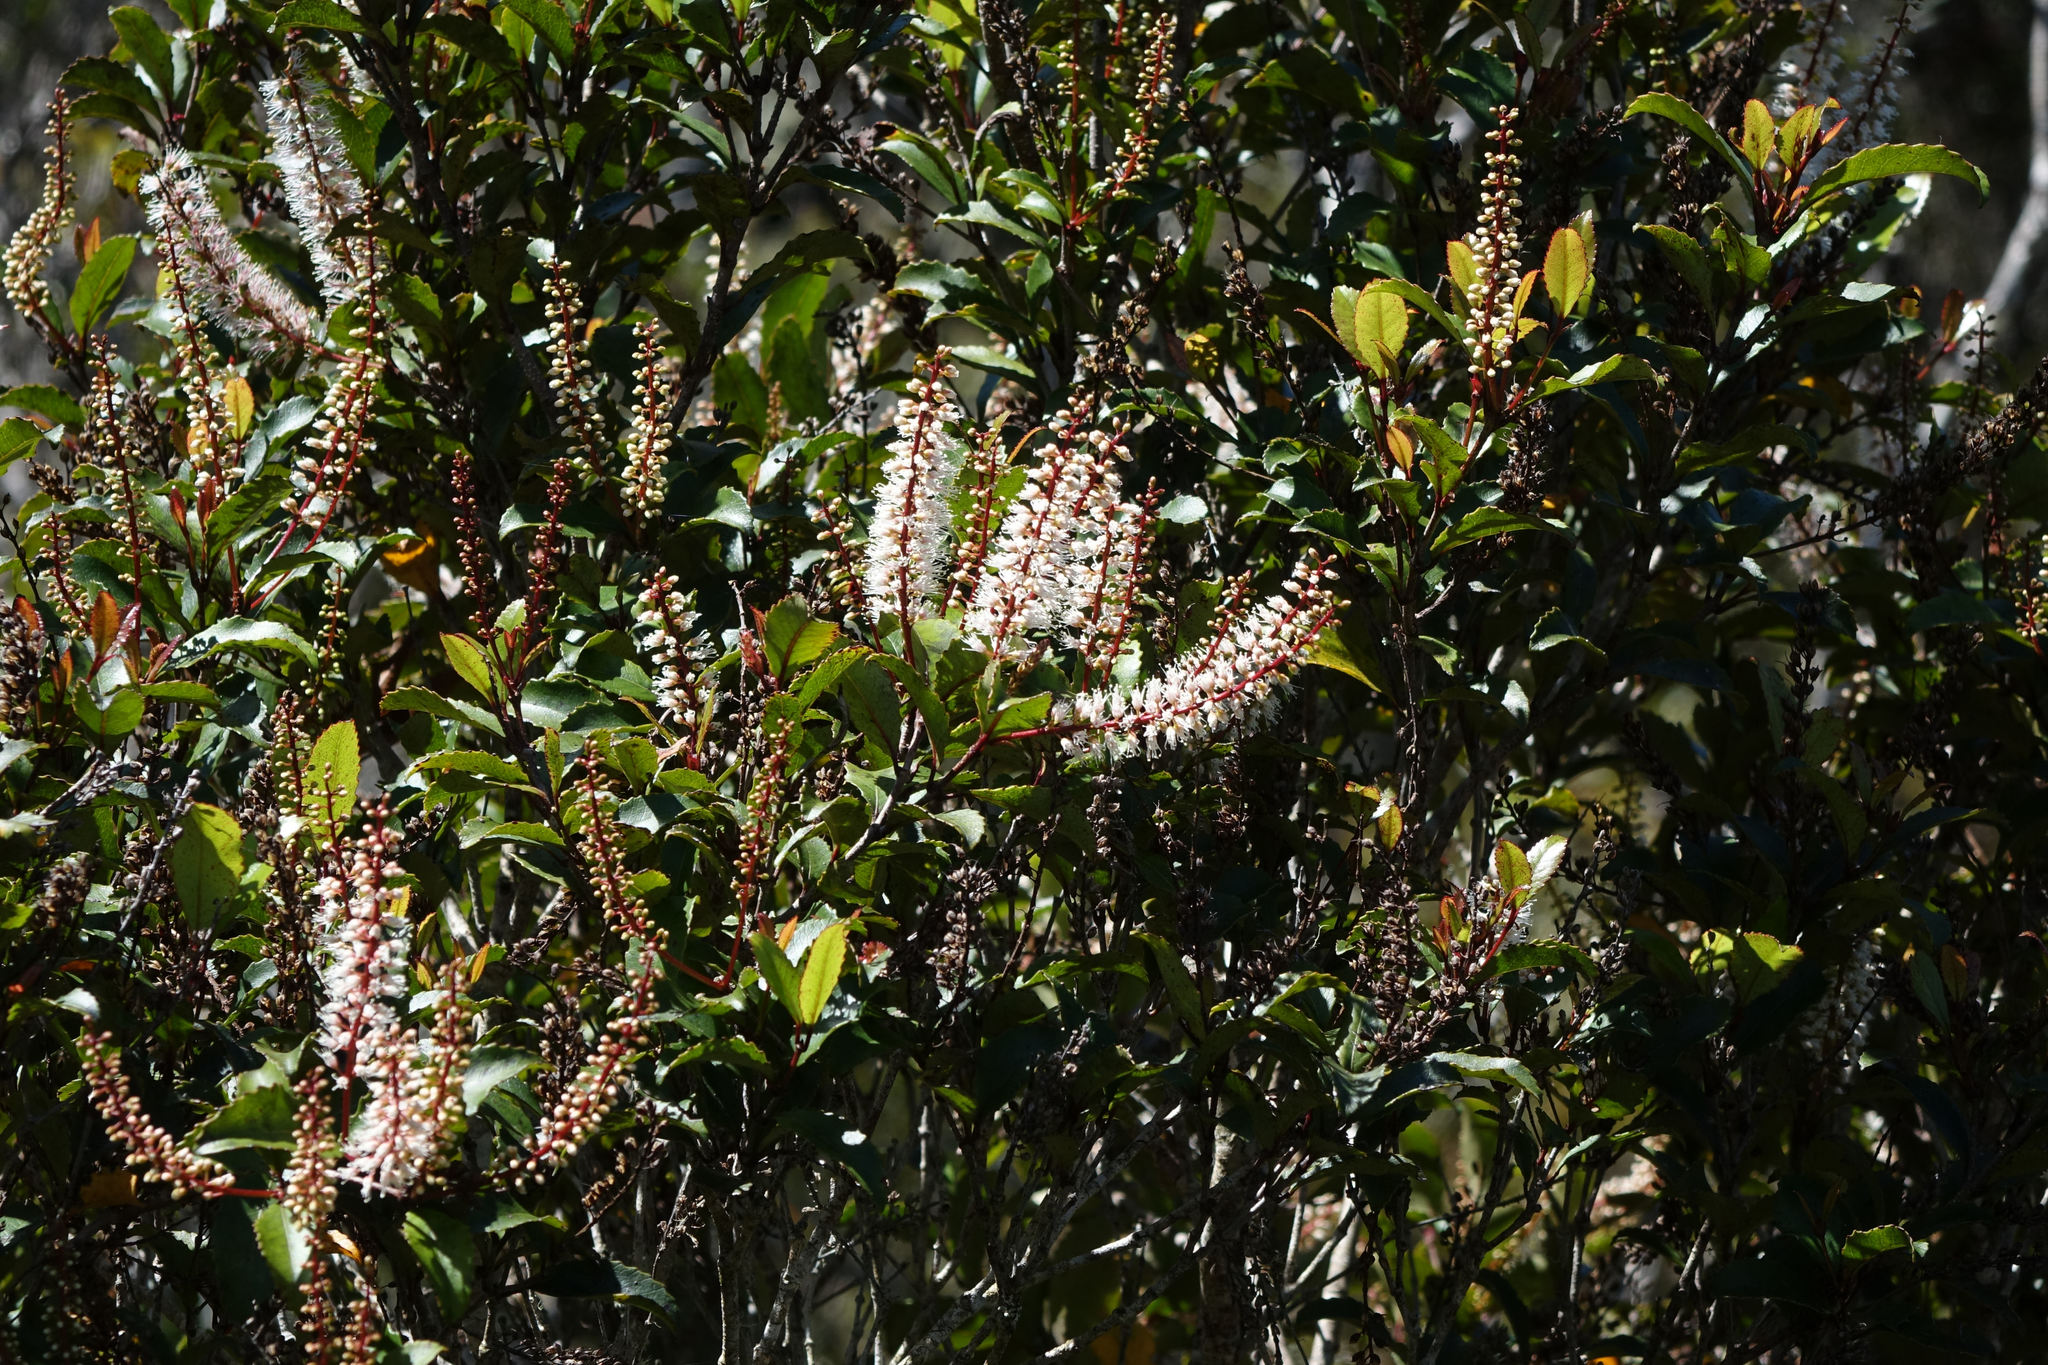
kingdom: Plantae
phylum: Tracheophyta
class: Magnoliopsida
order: Oxalidales
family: Cunoniaceae
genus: Pterophylla
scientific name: Pterophylla racemosa
